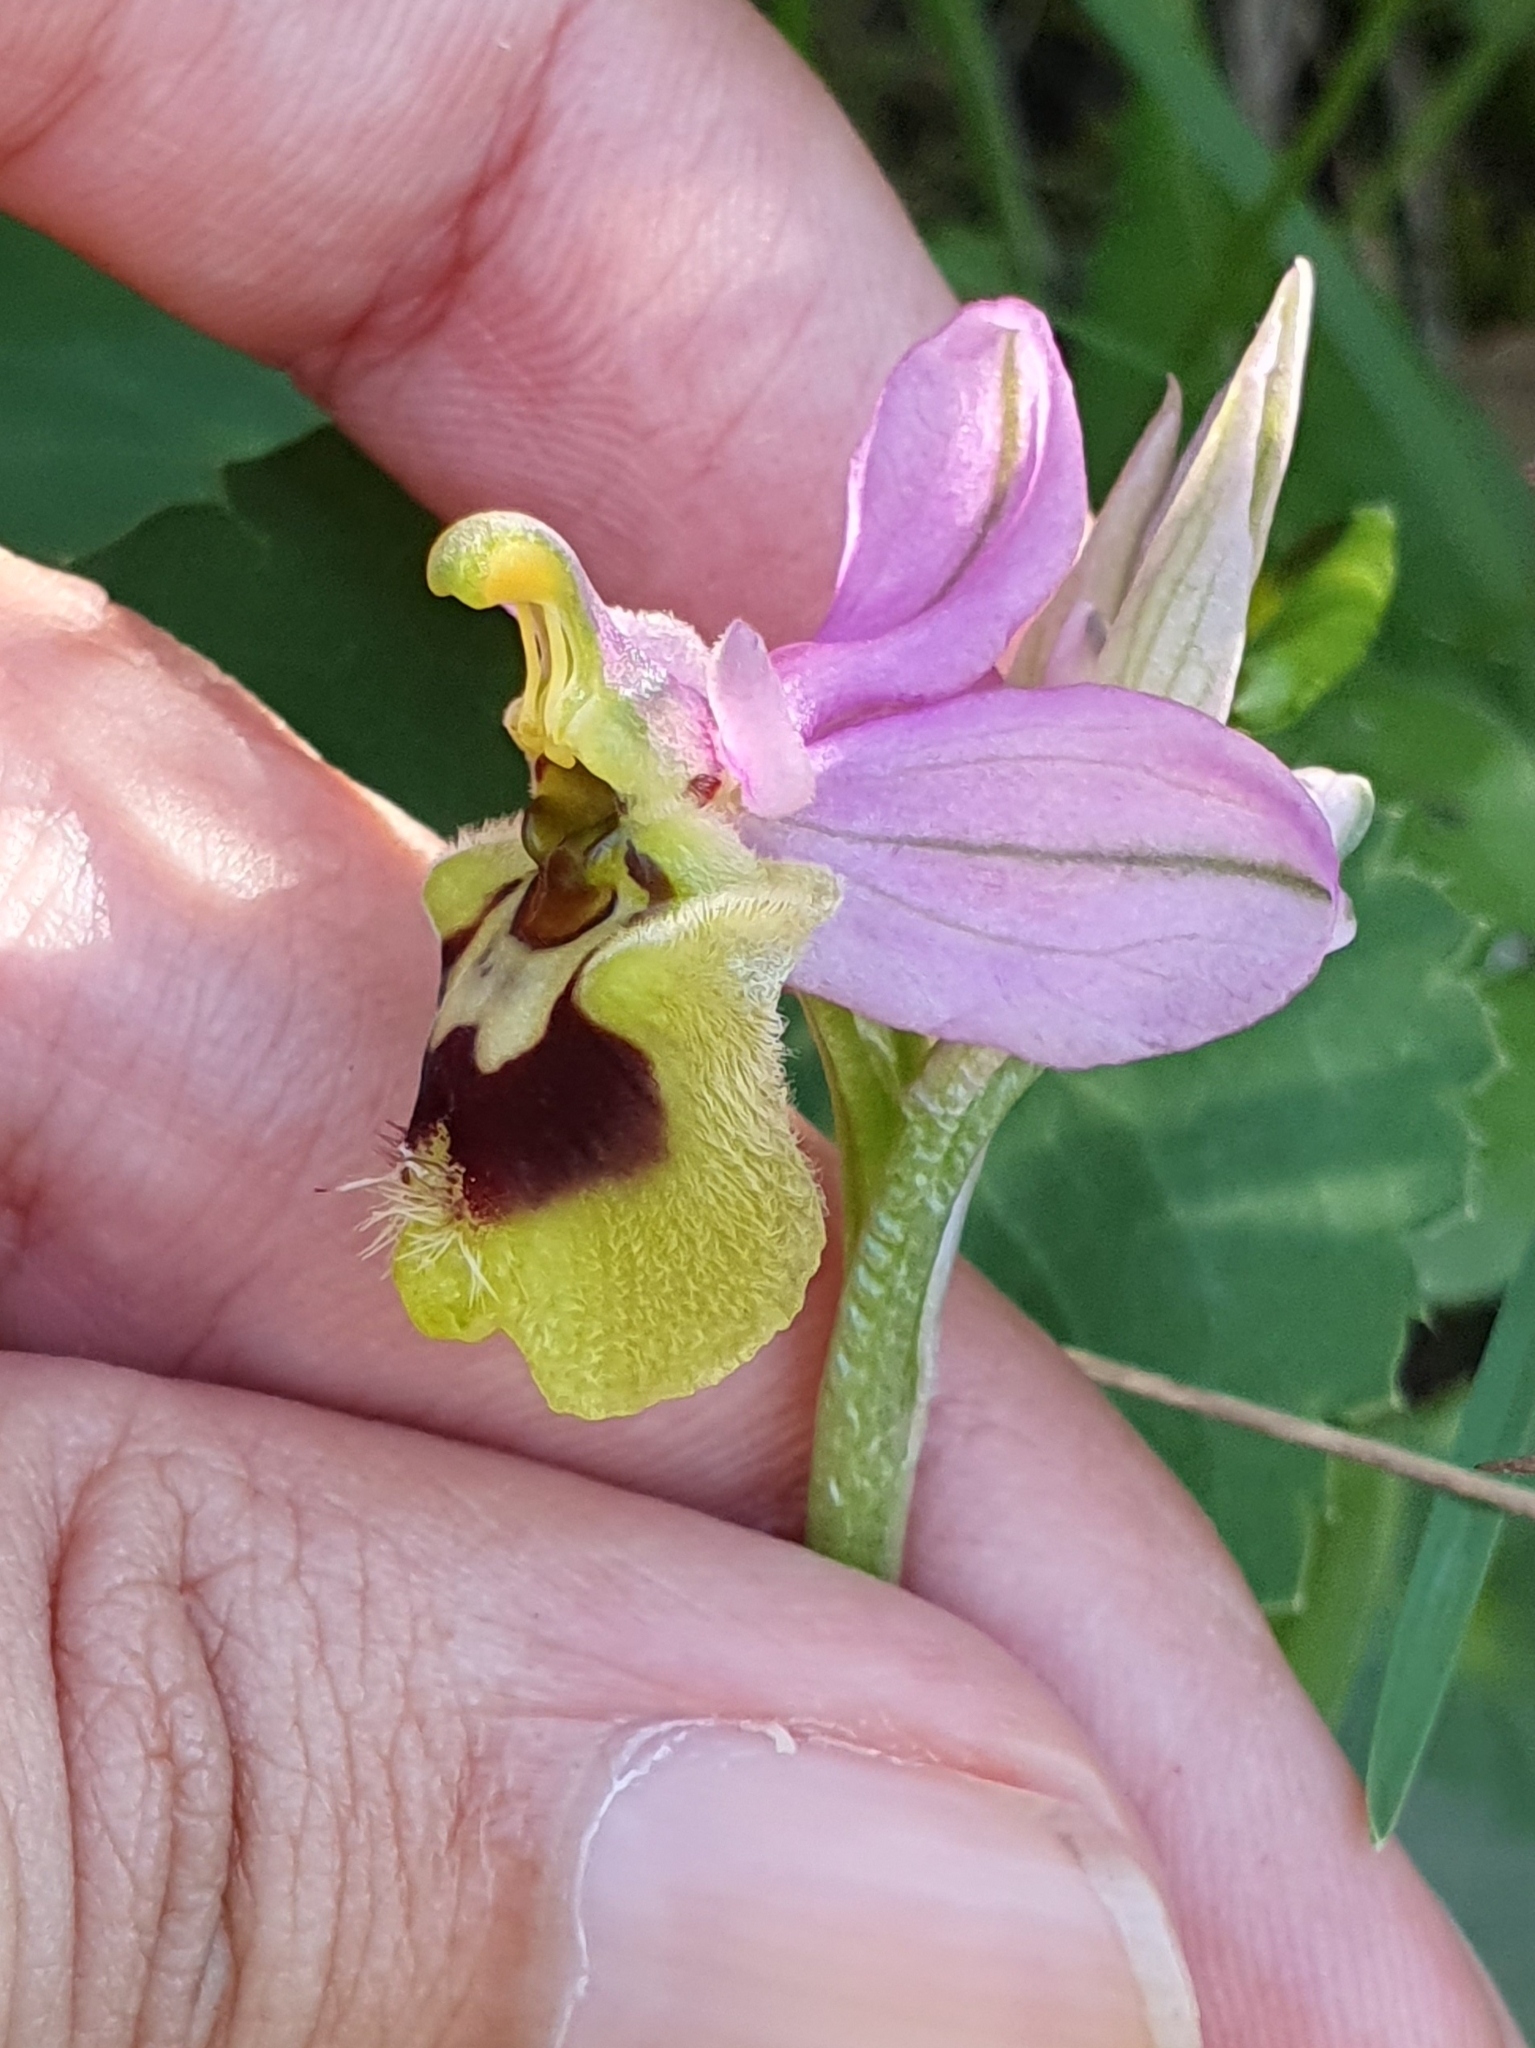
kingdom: Plantae
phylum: Tracheophyta
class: Liliopsida
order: Asparagales
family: Orchidaceae
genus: Ophrys
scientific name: Ophrys tenthredinifera
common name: Sawfly orchid
